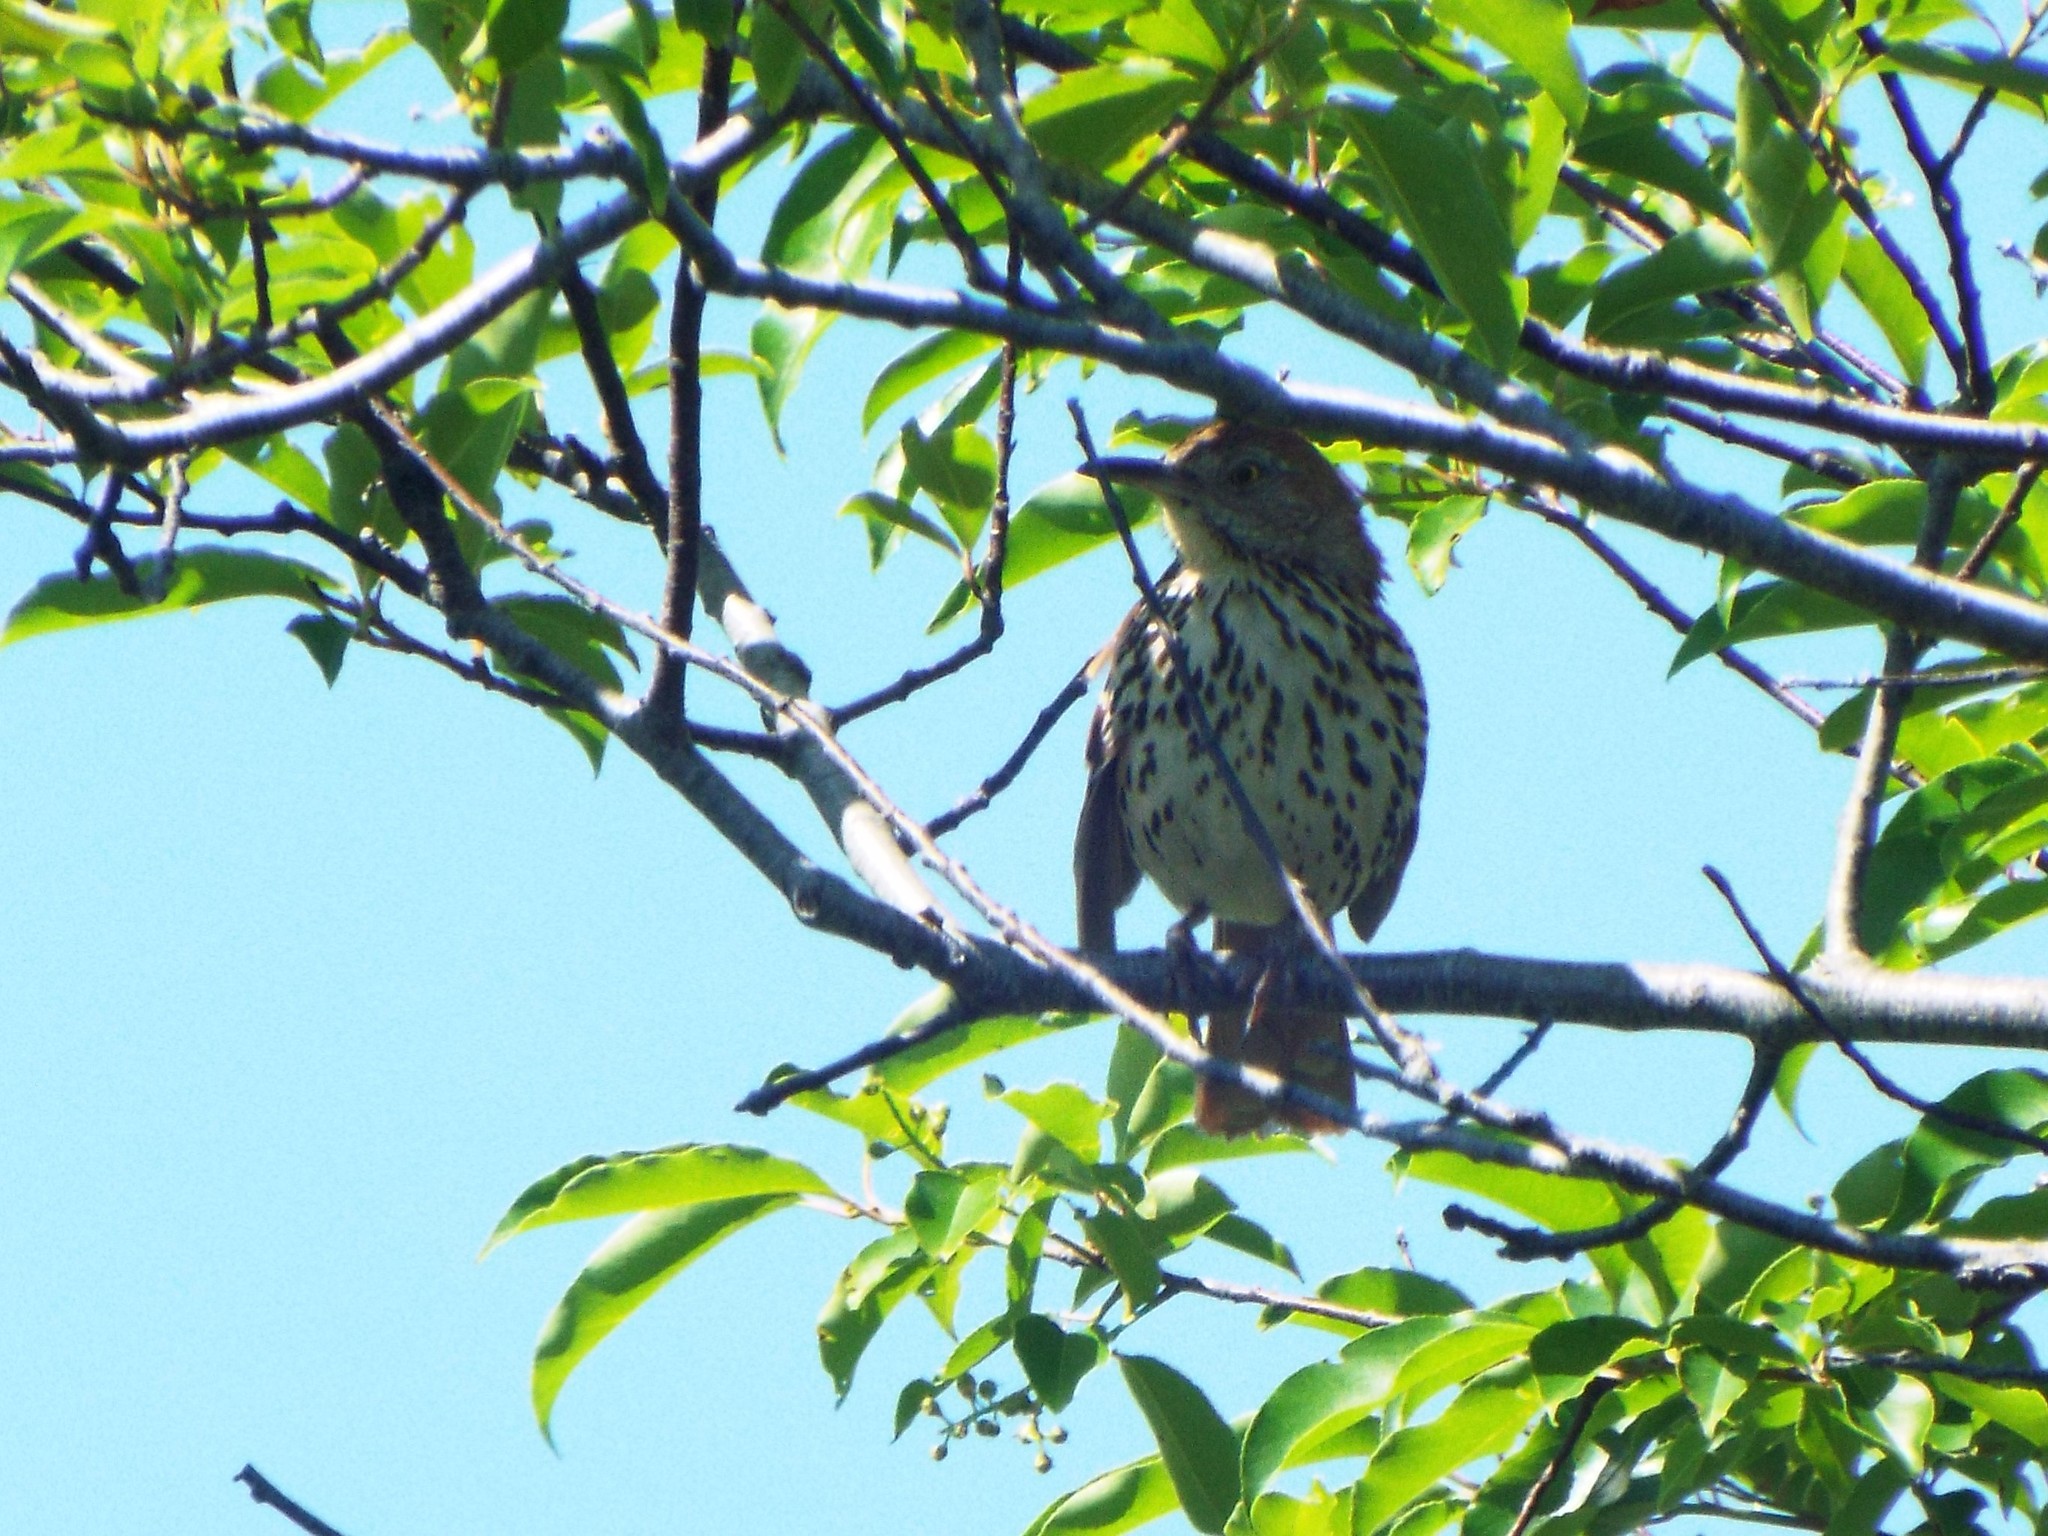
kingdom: Animalia
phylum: Chordata
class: Aves
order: Passeriformes
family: Mimidae
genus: Toxostoma
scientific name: Toxostoma rufum
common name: Brown thrasher
